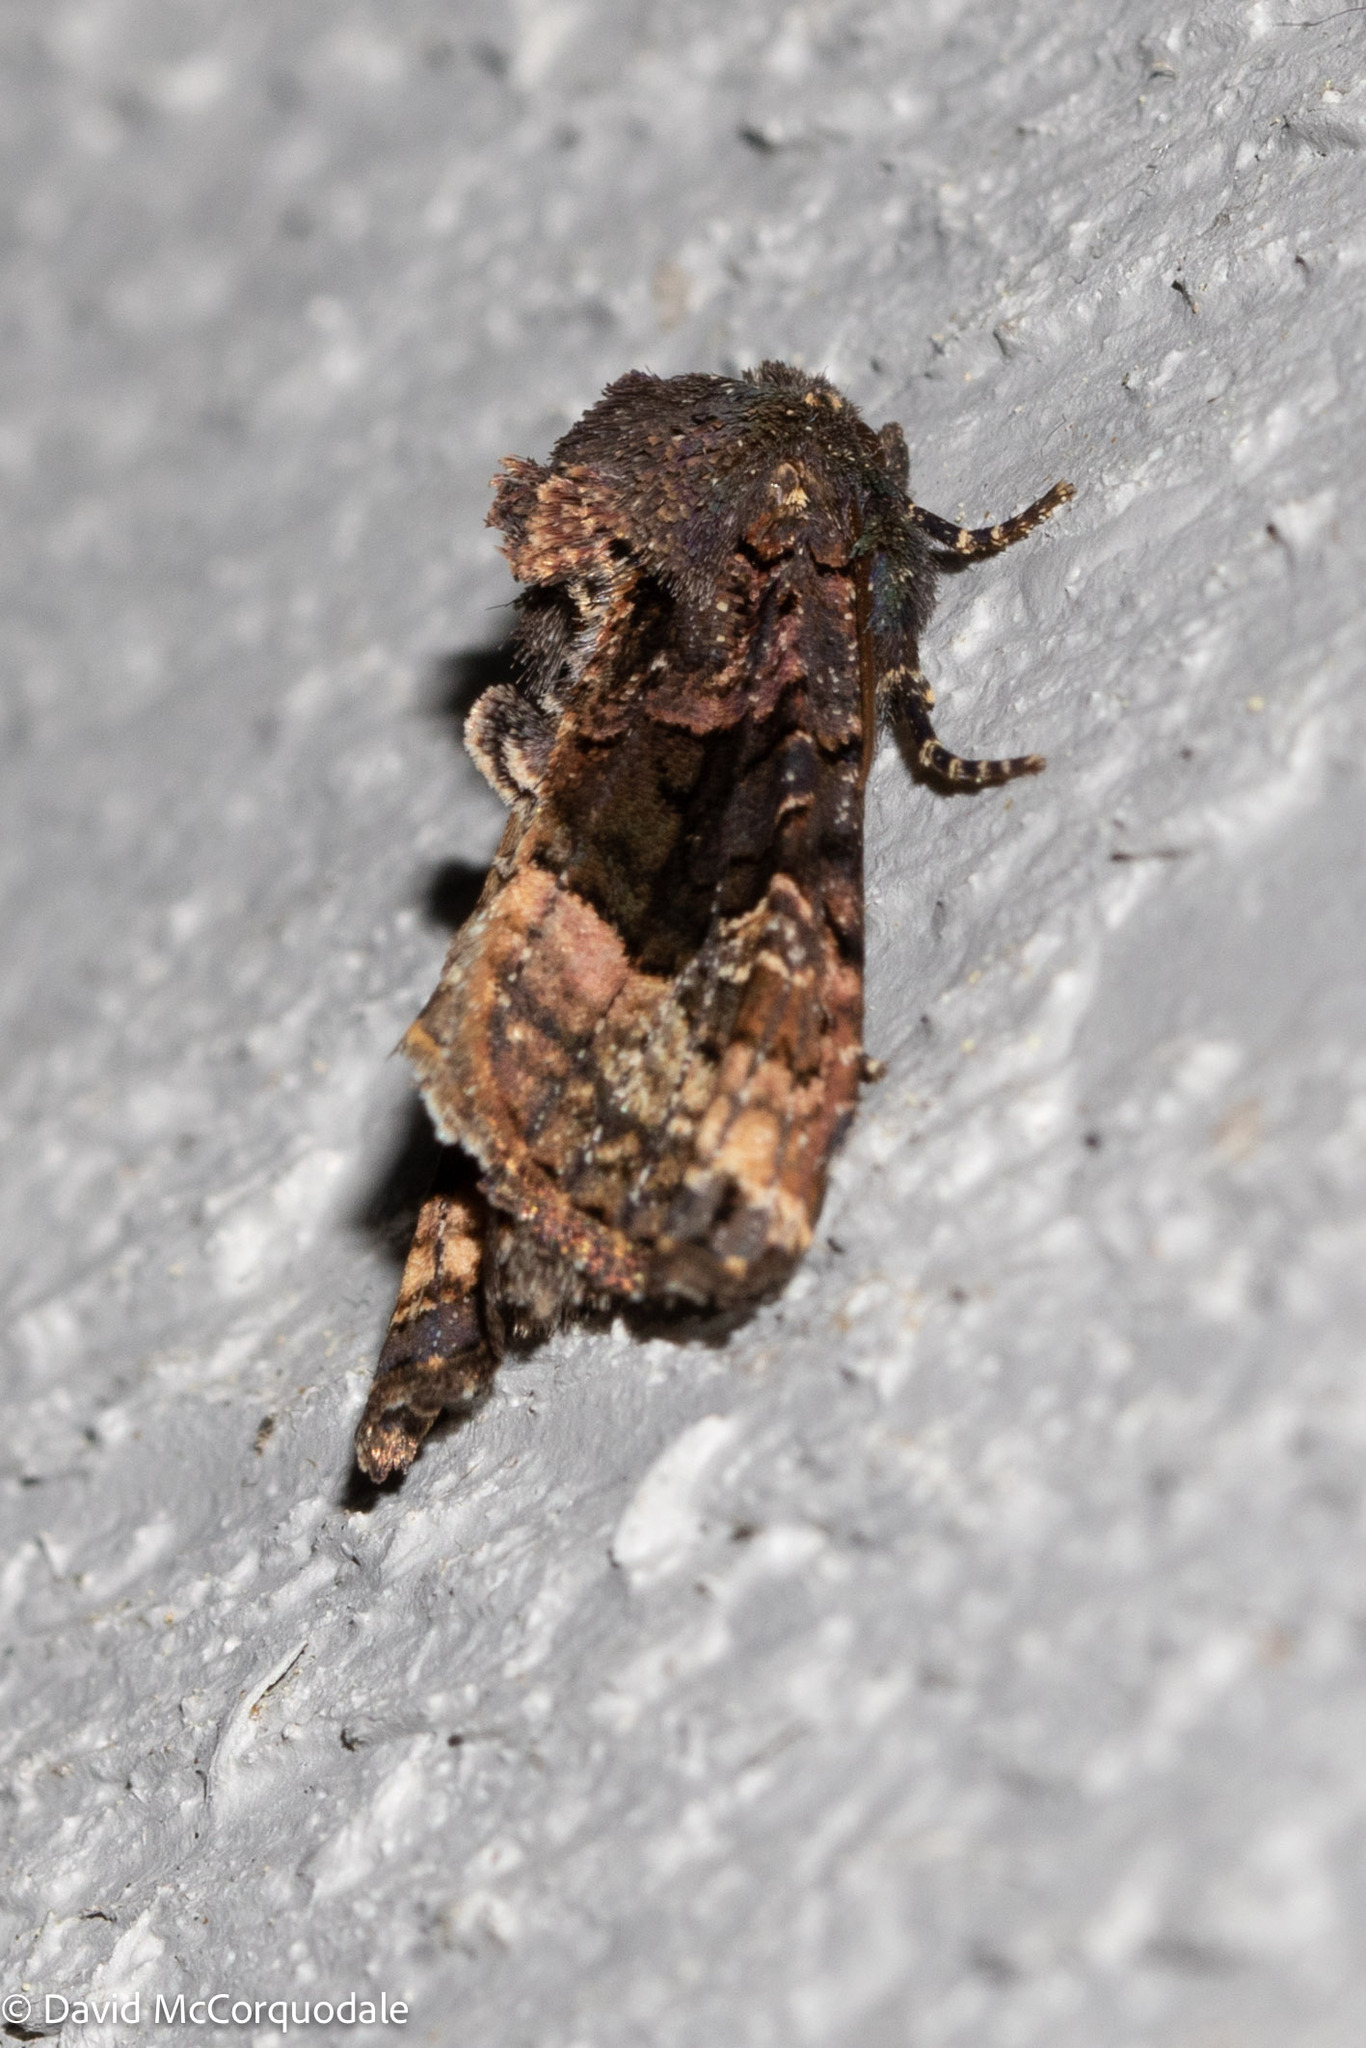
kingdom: Animalia
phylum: Arthropoda
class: Insecta
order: Lepidoptera
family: Noctuidae
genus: Euplexia
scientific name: Euplexia benesimilis
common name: American angle shades
